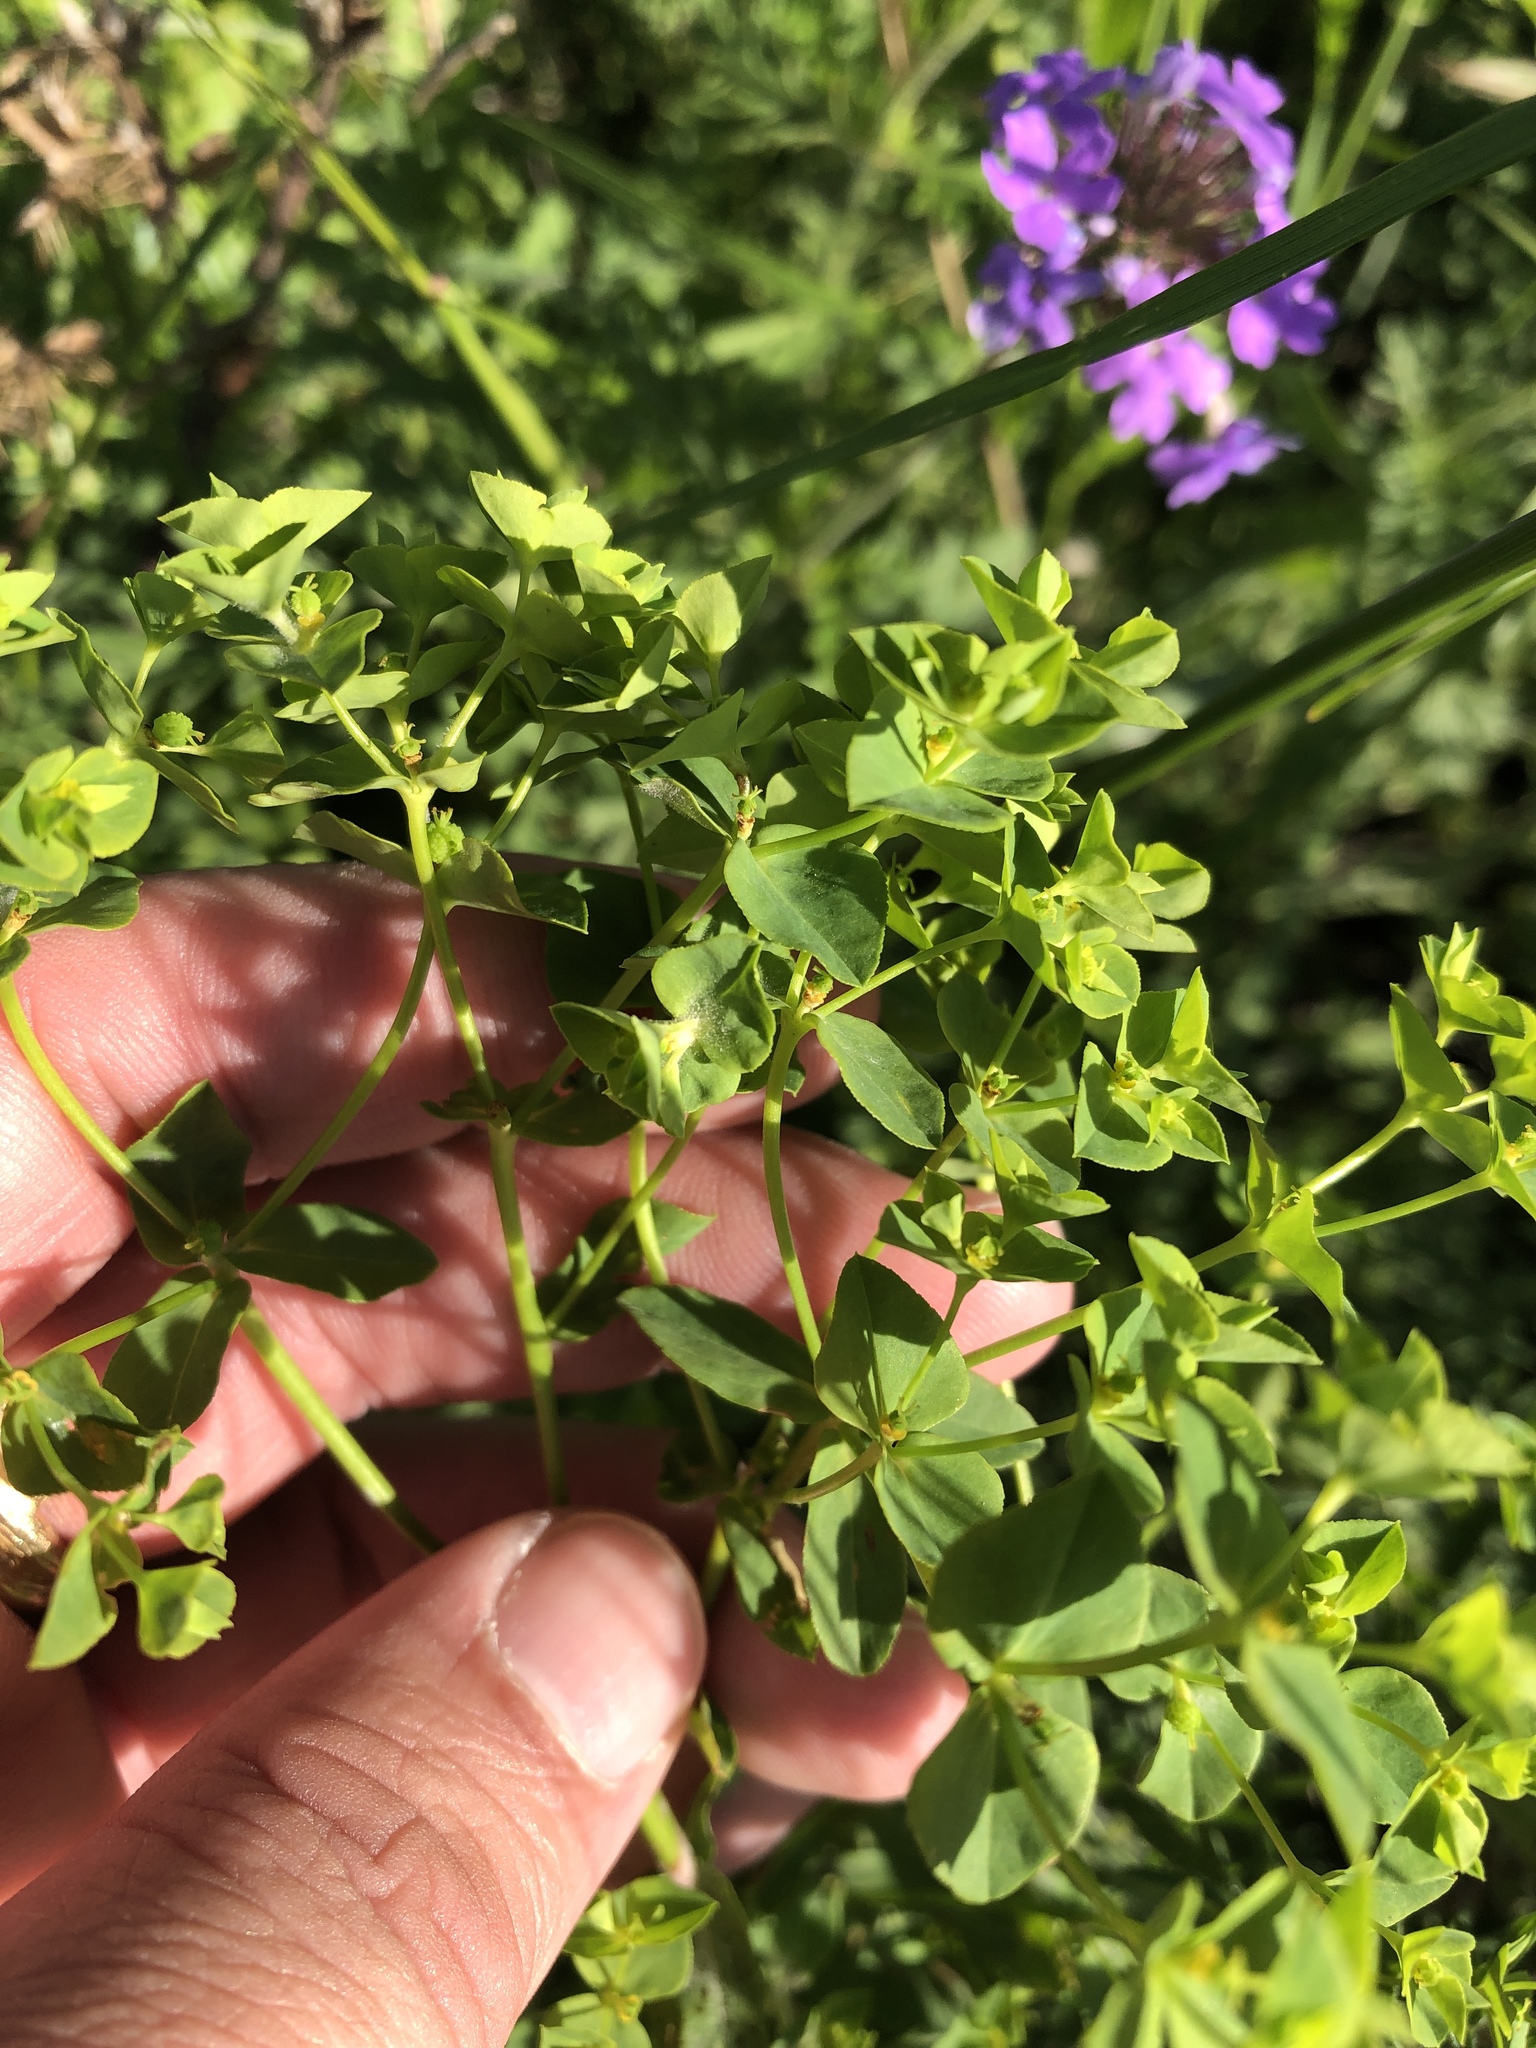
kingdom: Plantae
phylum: Tracheophyta
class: Magnoliopsida
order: Malpighiales
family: Euphorbiaceae
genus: Euphorbia
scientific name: Euphorbia spathulata
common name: Blunt spurge
